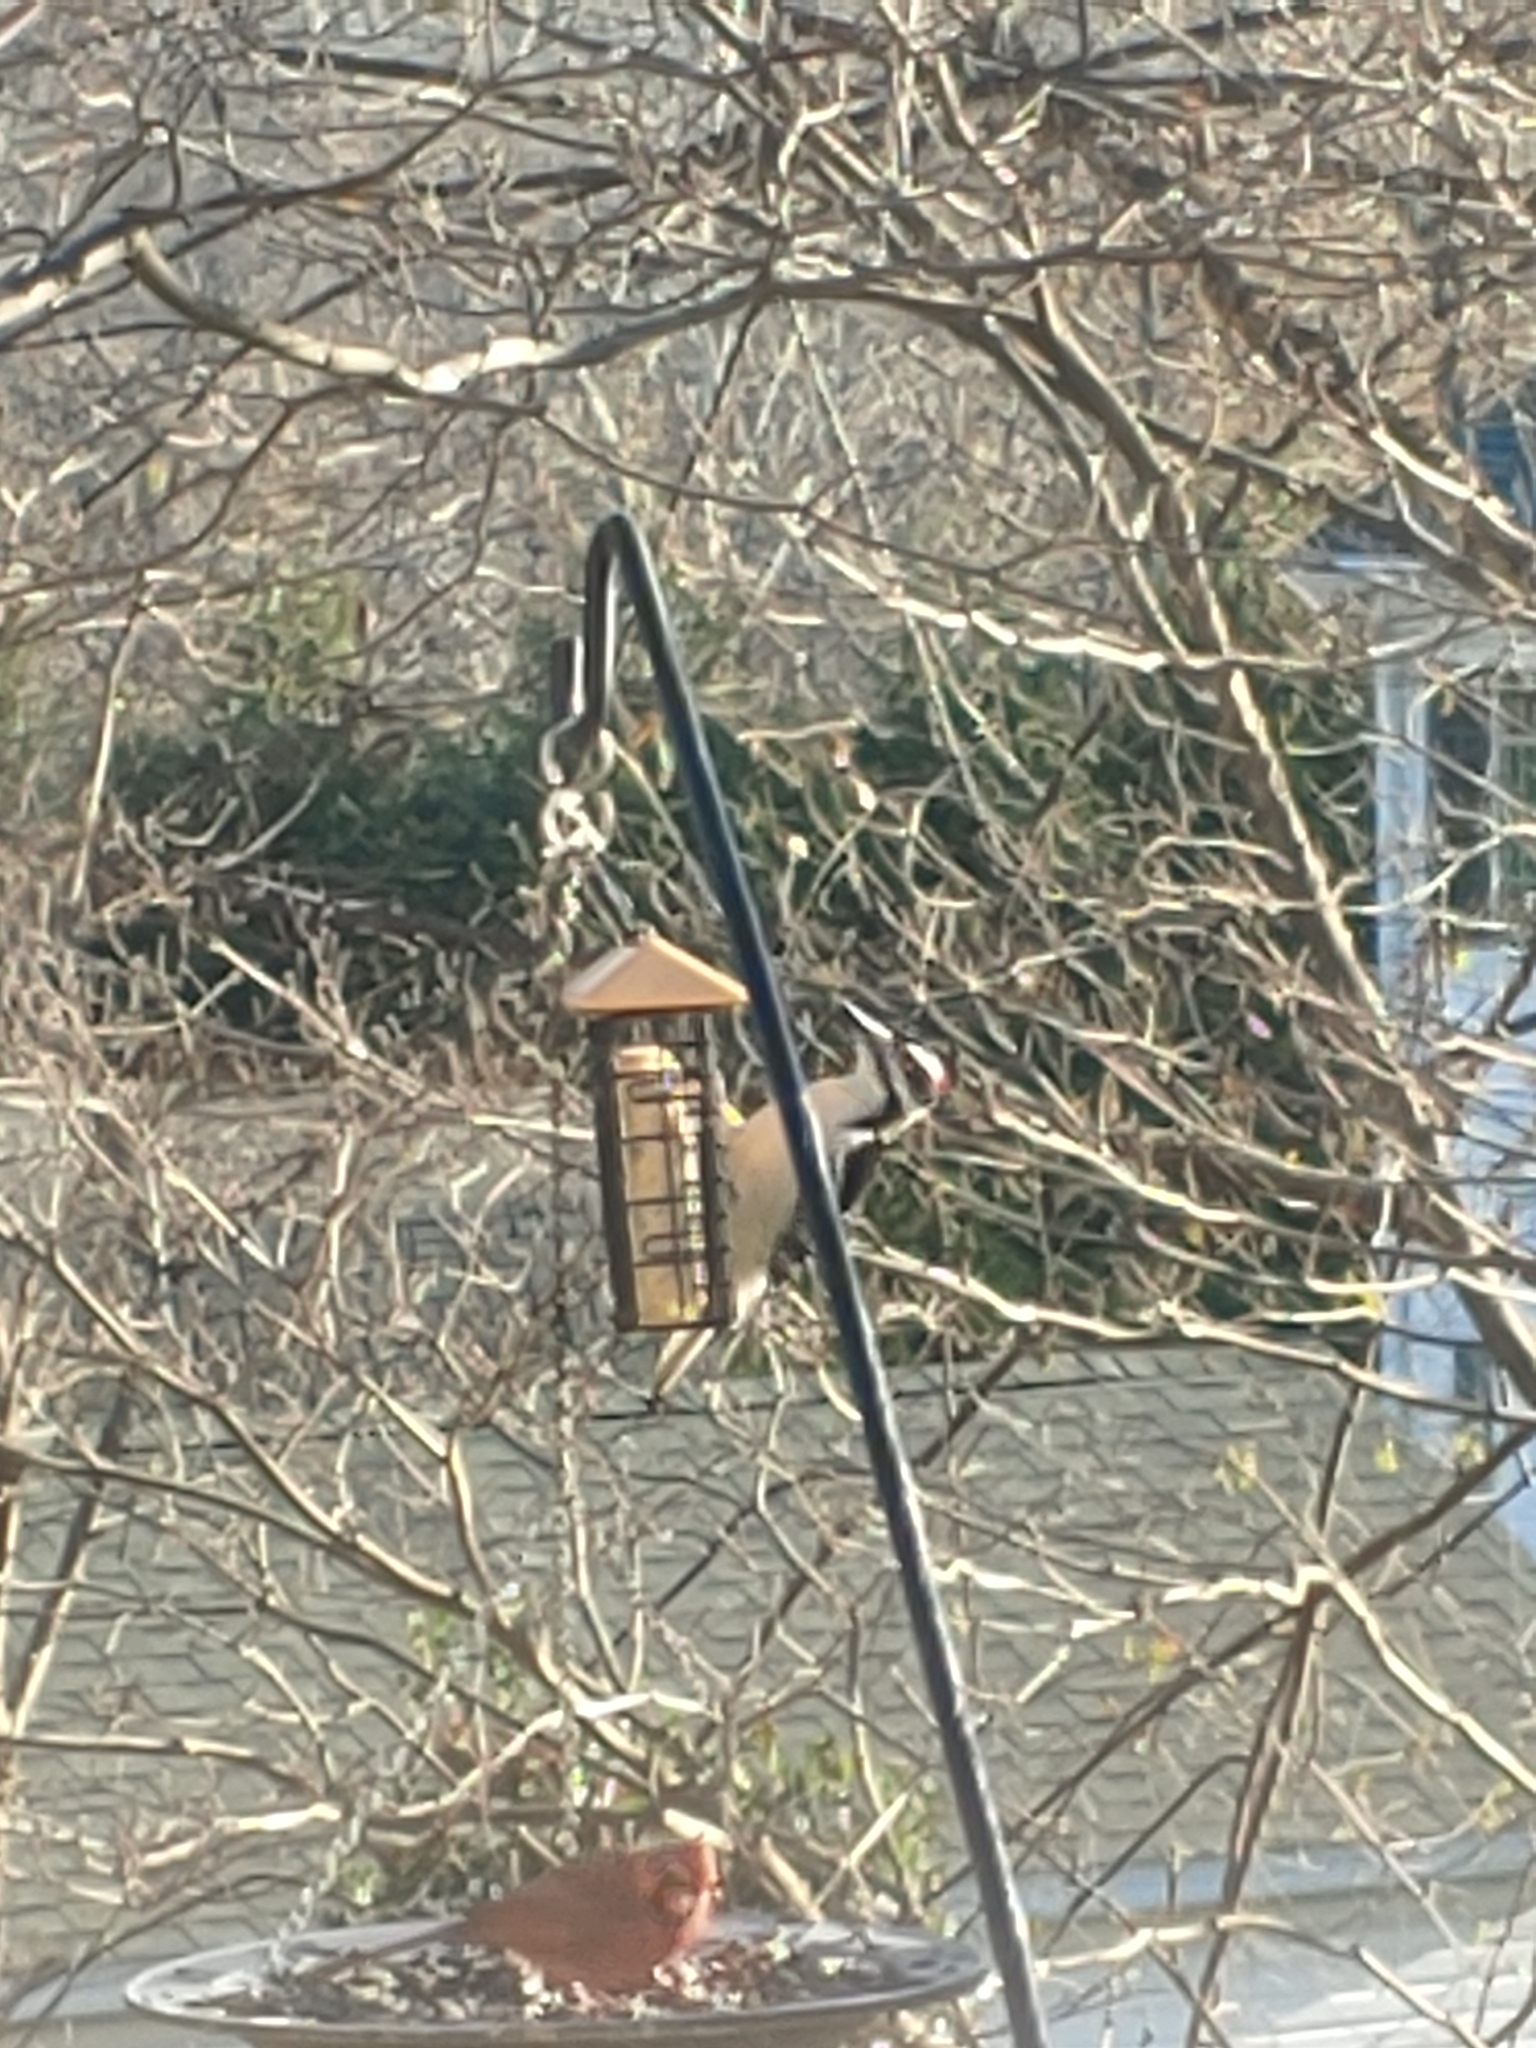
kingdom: Animalia
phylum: Chordata
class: Aves
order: Piciformes
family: Picidae
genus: Leuconotopicus
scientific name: Leuconotopicus villosus
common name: Hairy woodpecker
